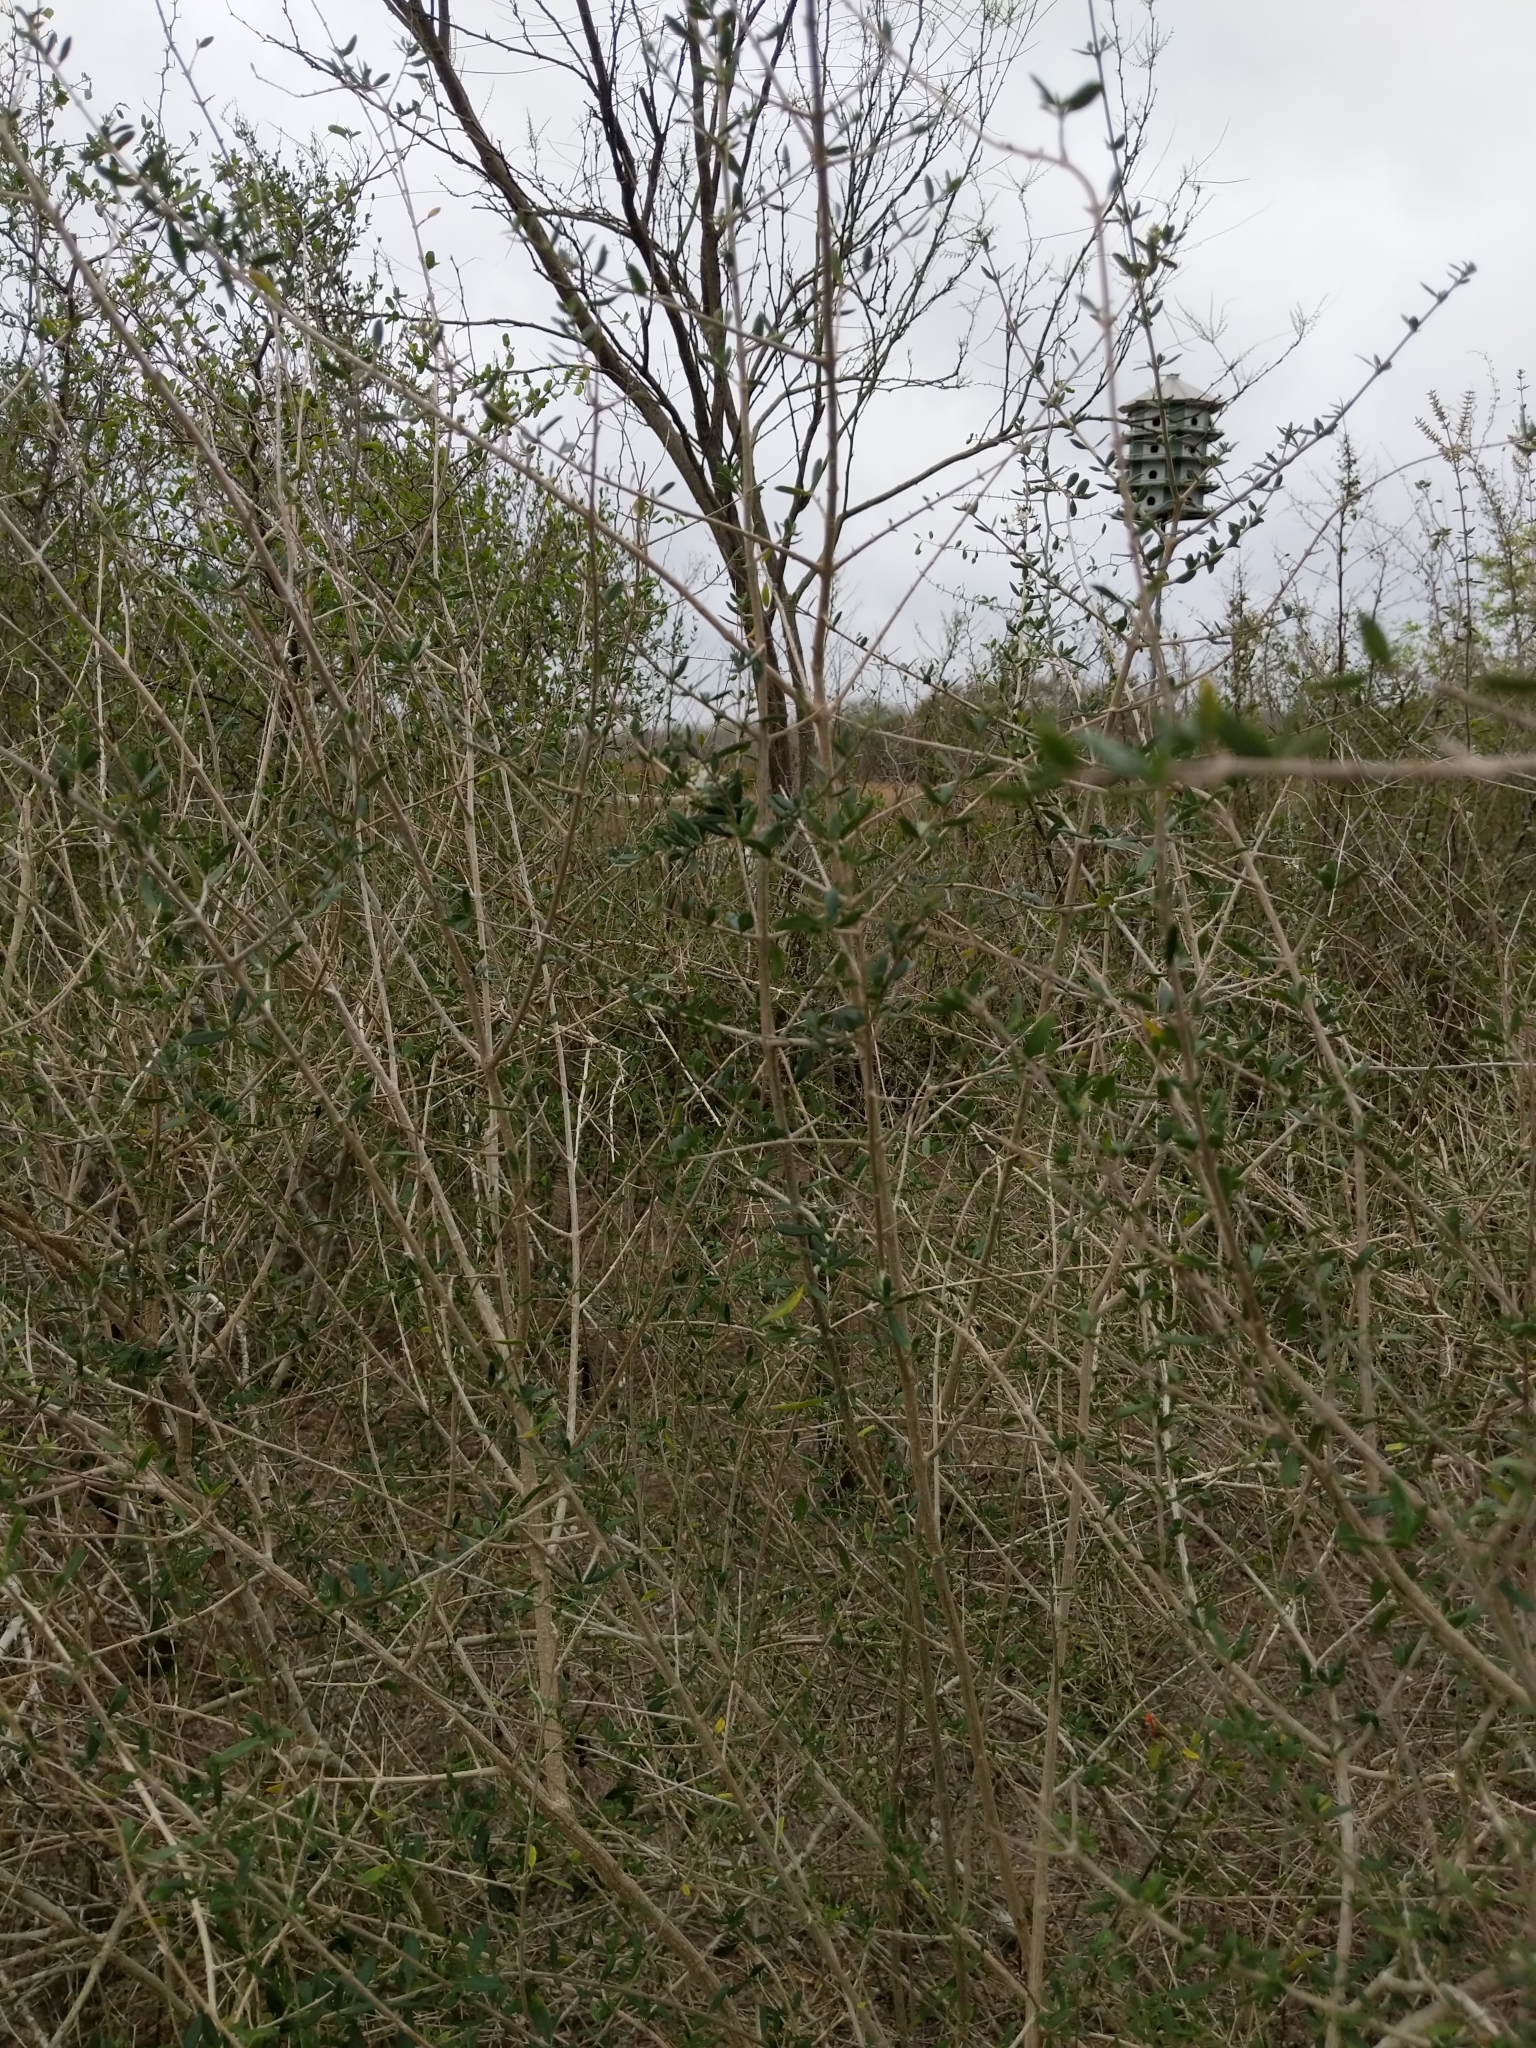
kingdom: Plantae
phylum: Tracheophyta
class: Magnoliopsida
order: Lamiales
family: Verbenaceae
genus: Aloysia
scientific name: Aloysia gratissima
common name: Common bee-brush
